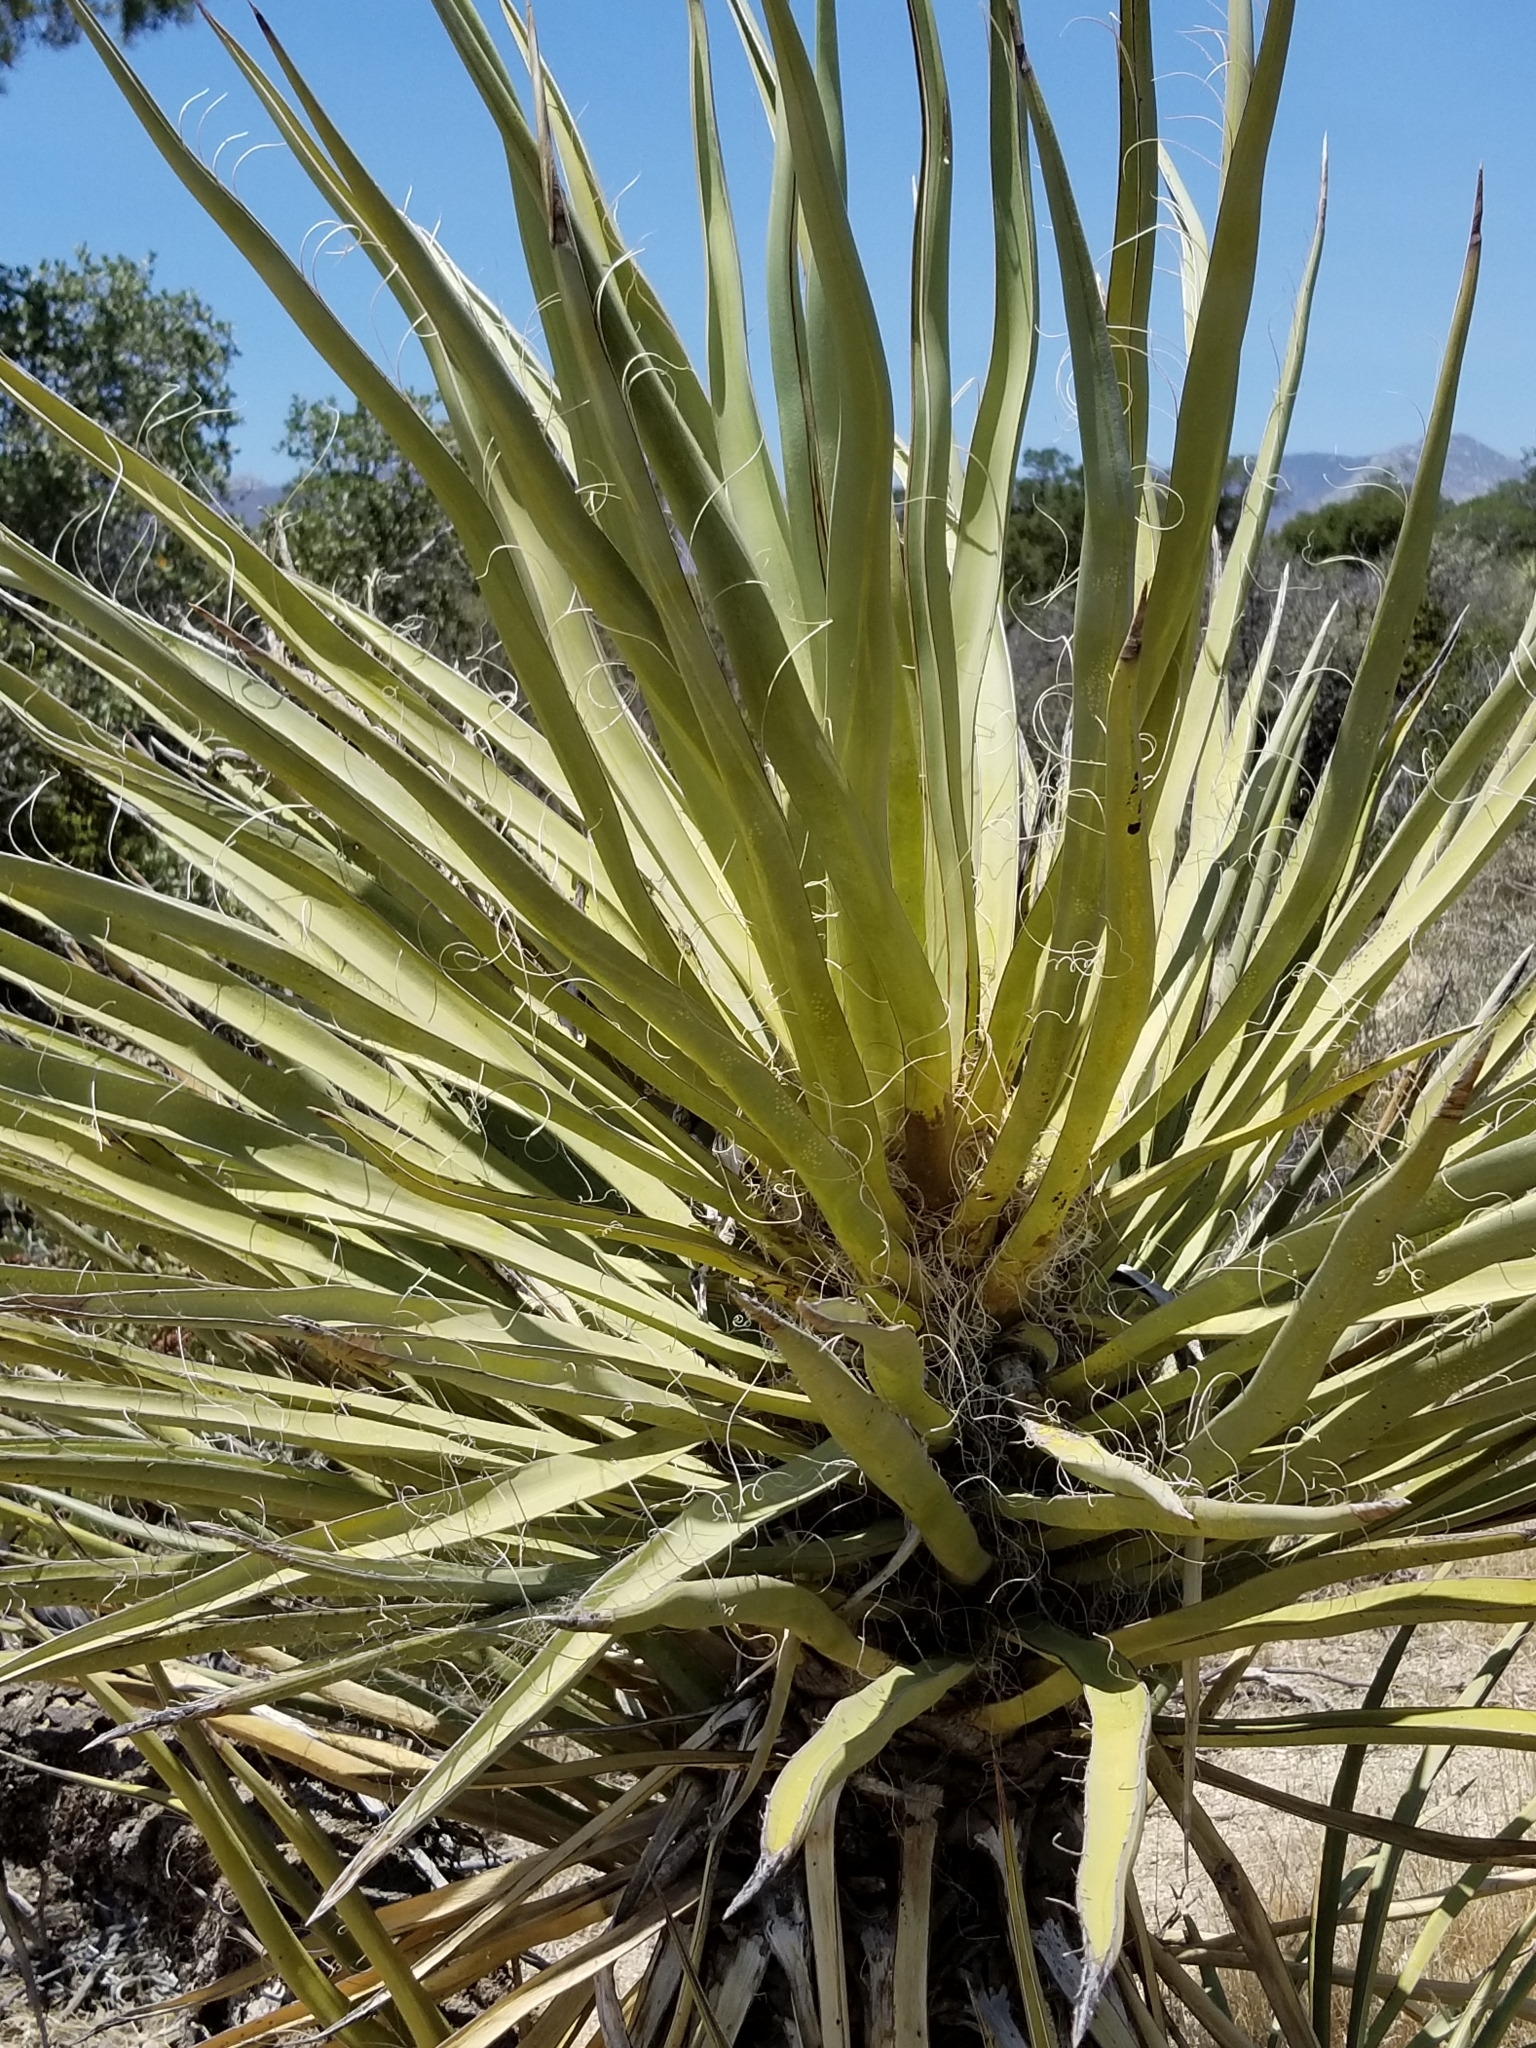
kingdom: Plantae
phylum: Tracheophyta
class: Liliopsida
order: Asparagales
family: Asparagaceae
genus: Yucca
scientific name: Yucca schidigera
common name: Mojave yucca
